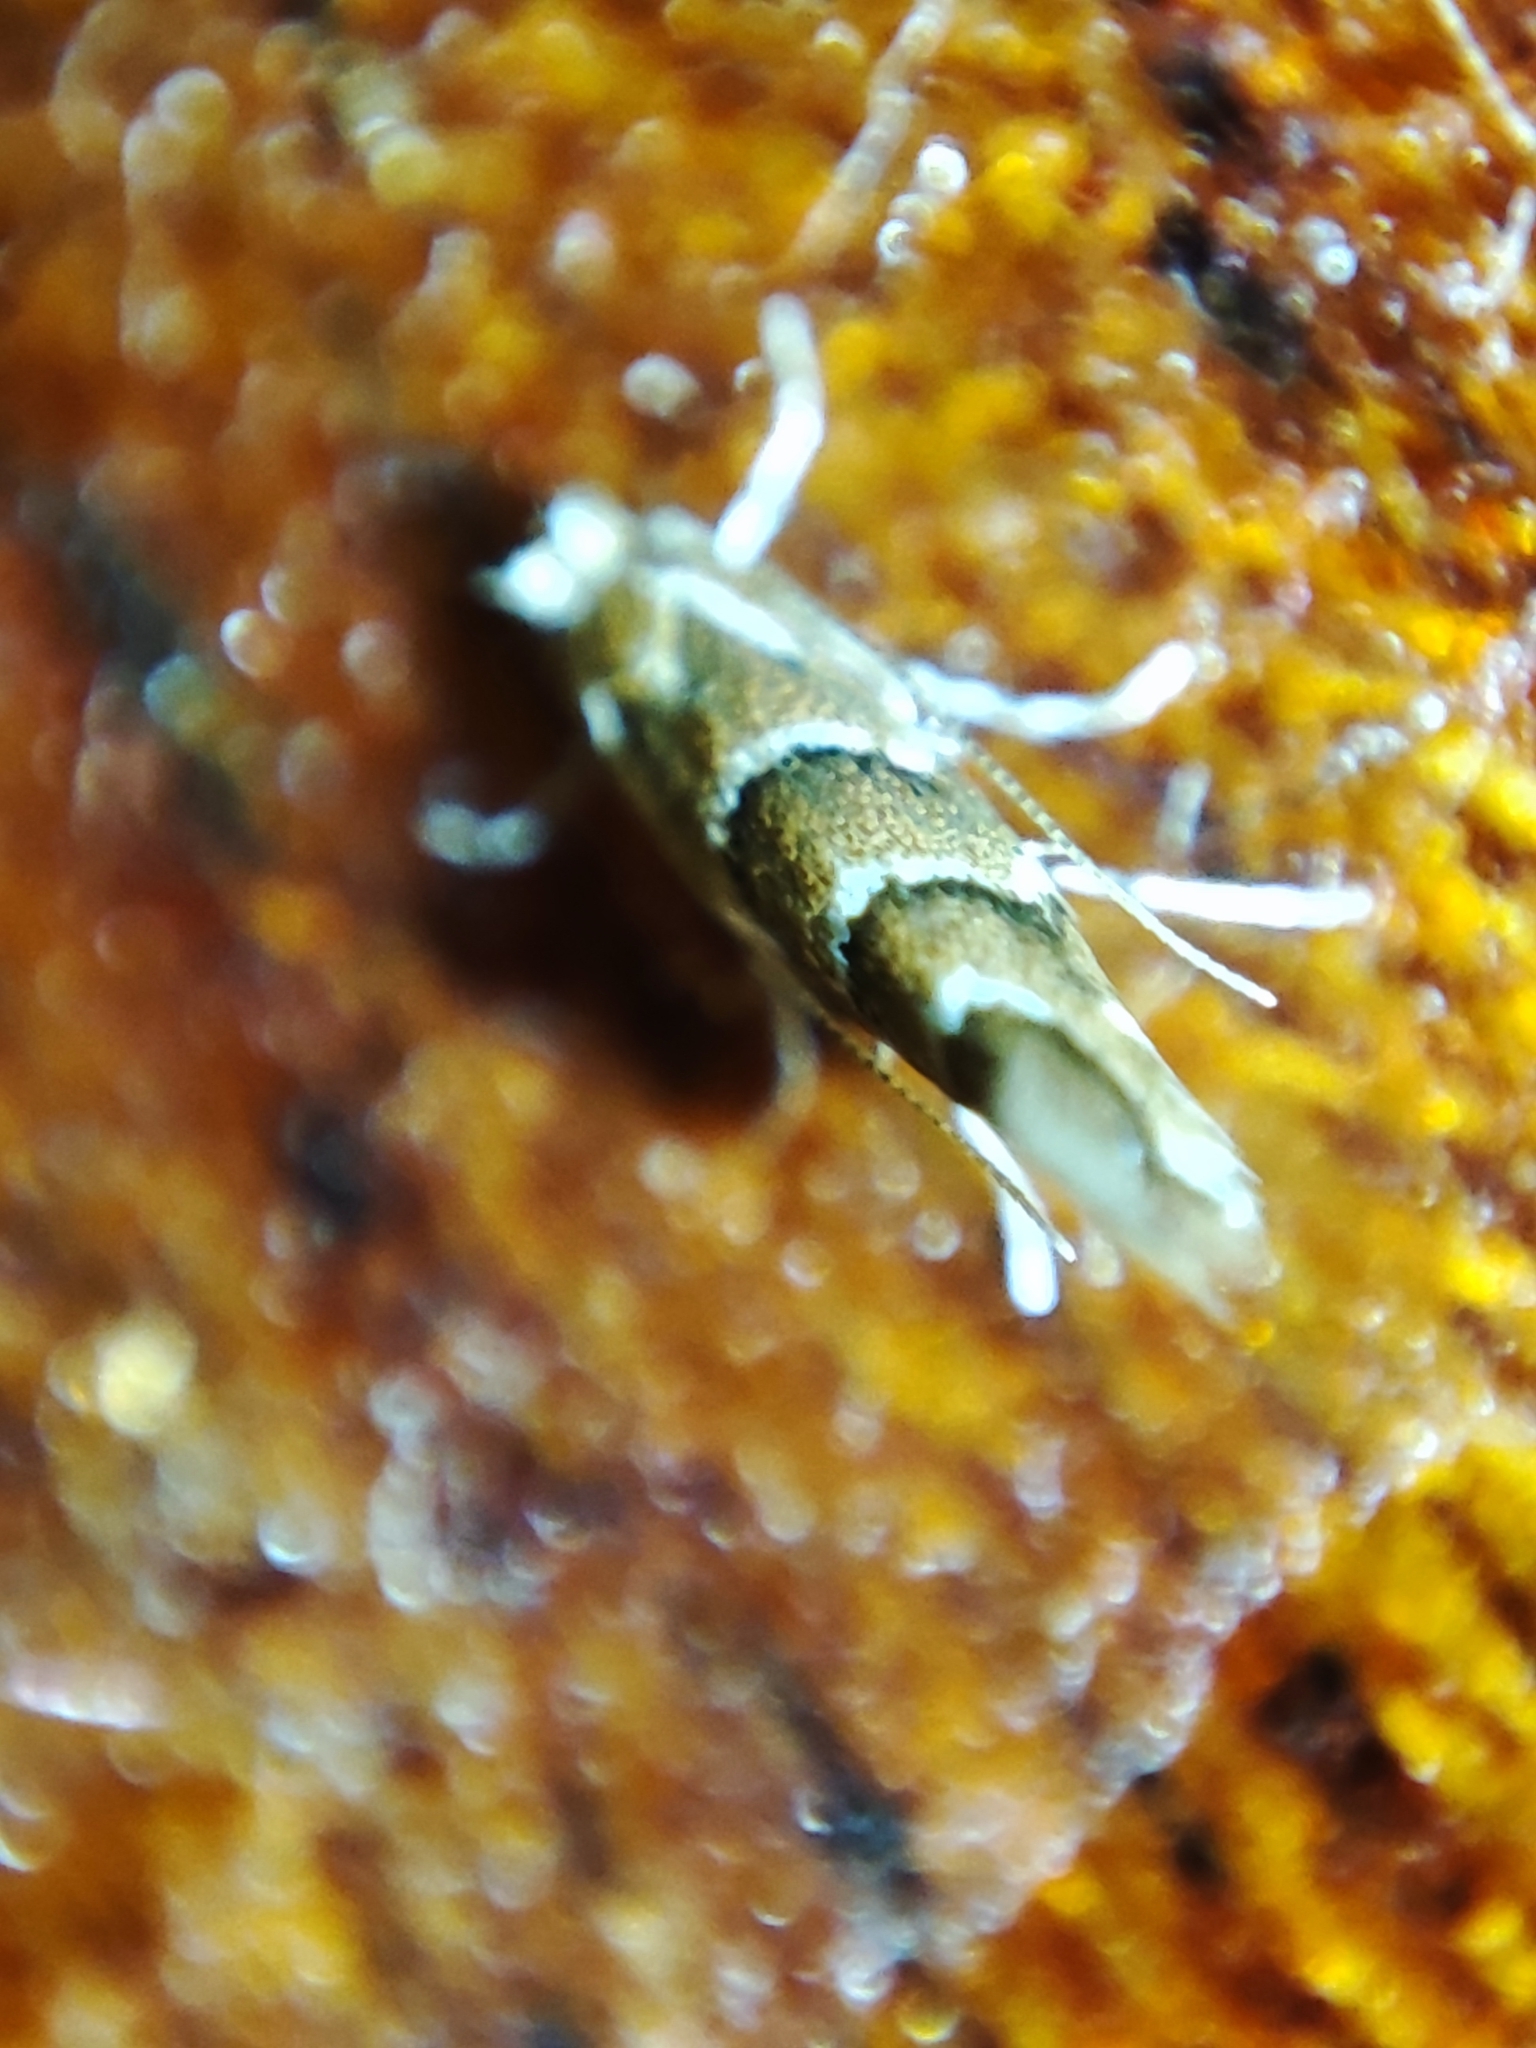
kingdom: Animalia
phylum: Arthropoda
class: Insecta
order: Lepidoptera
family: Gracillariidae
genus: Cameraria
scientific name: Cameraria ohridella
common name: Horse-chestnut leaf-miner
